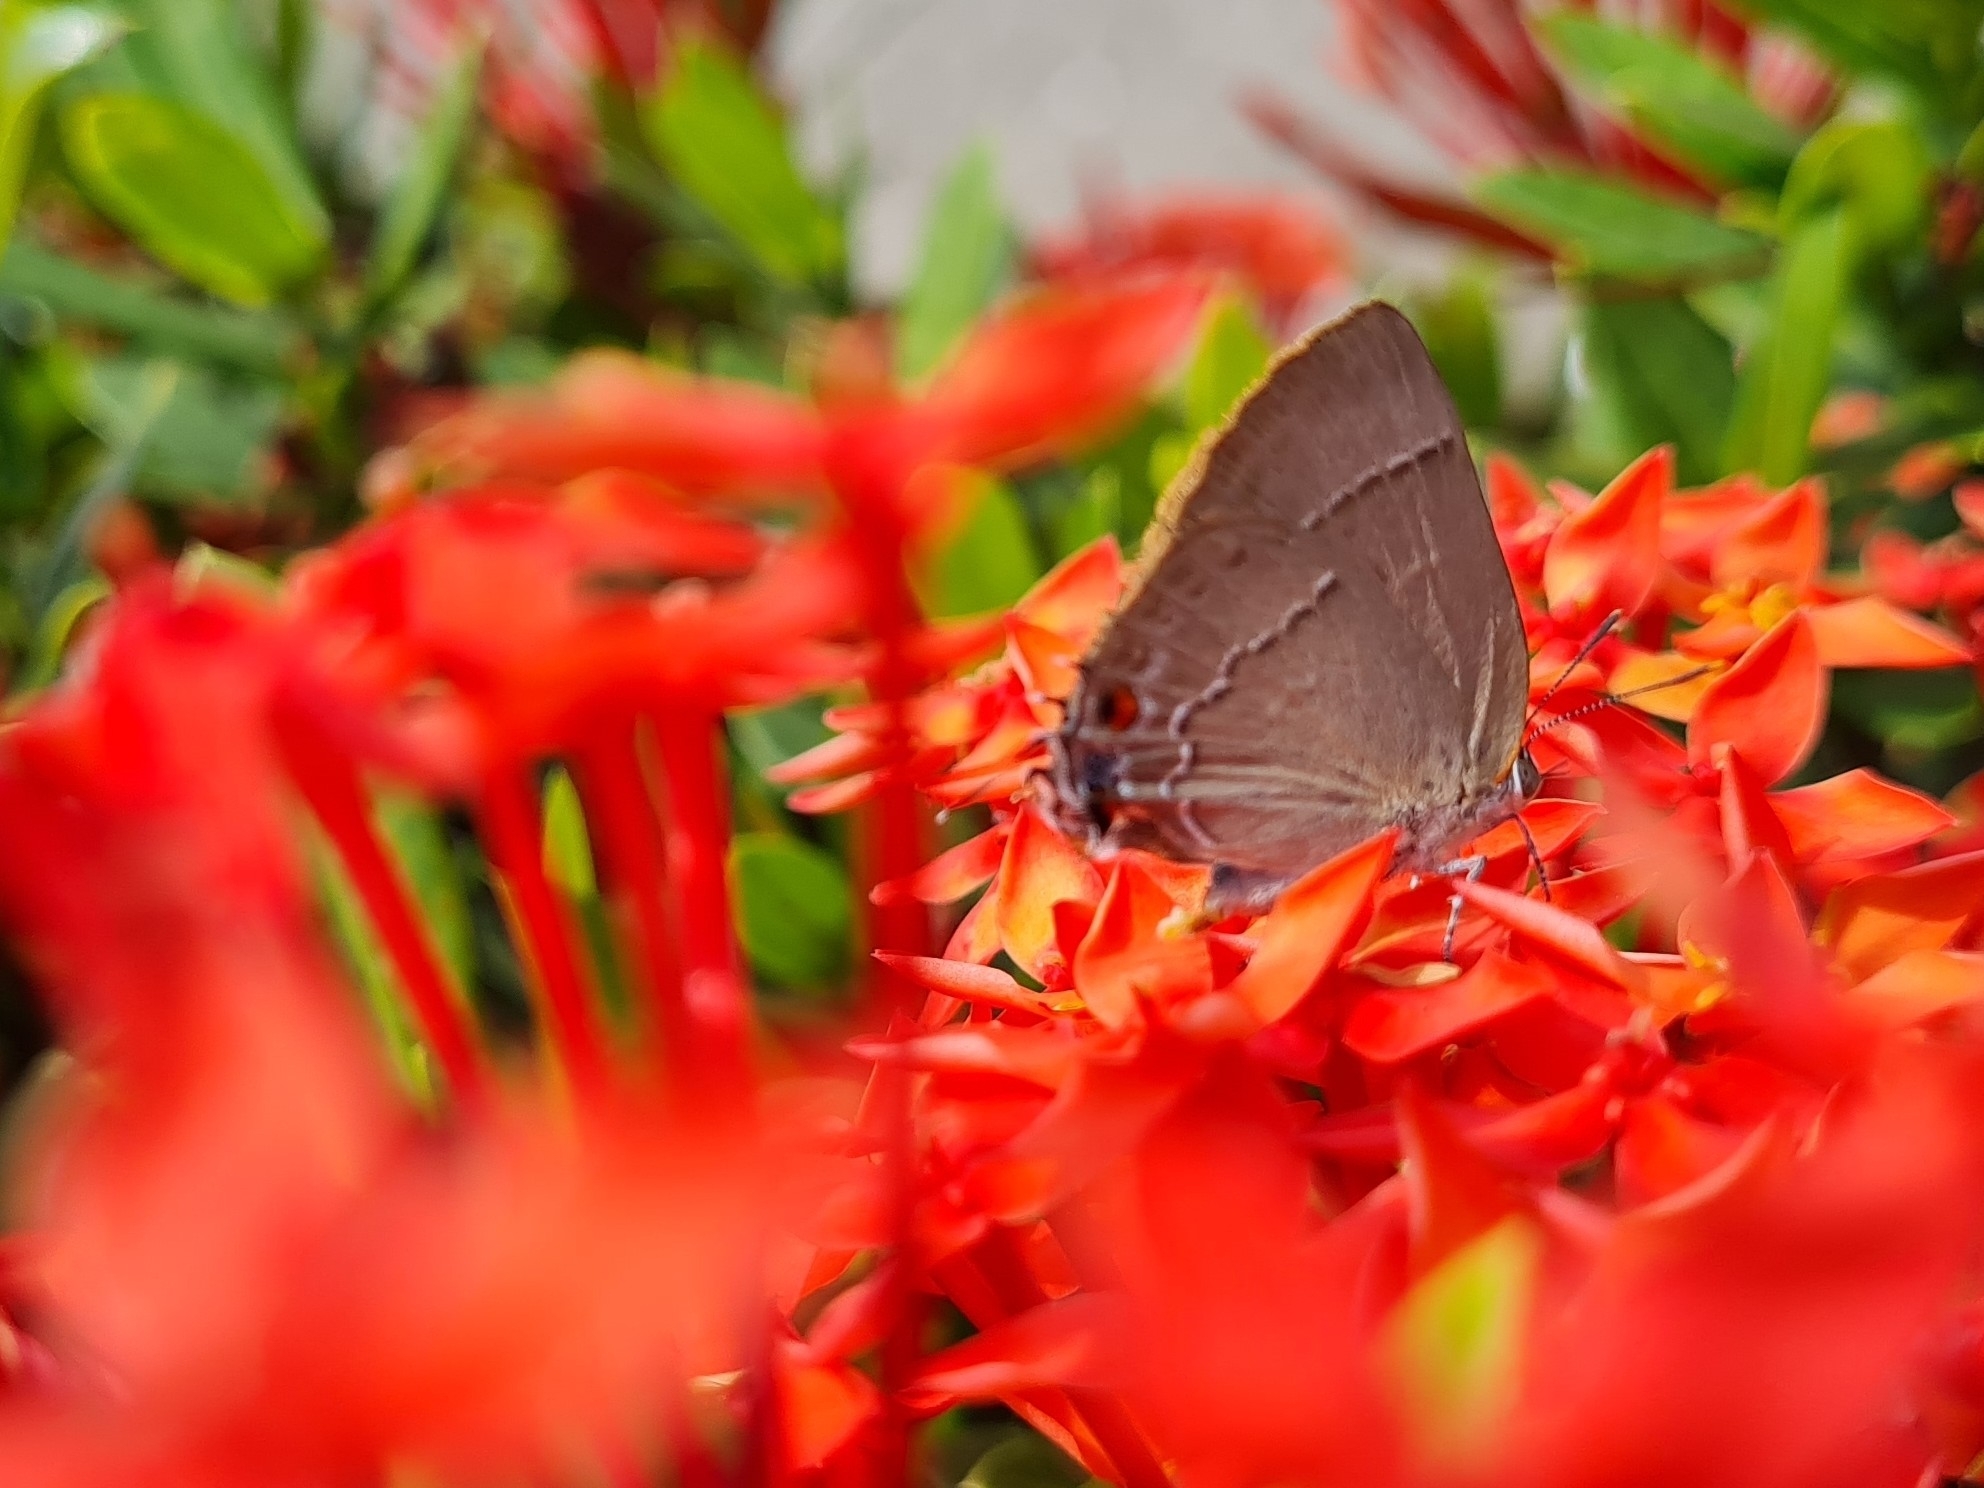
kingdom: Animalia
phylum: Arthropoda
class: Insecta
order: Lepidoptera
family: Lycaenidae
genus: Thecla
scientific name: Thecla marius
